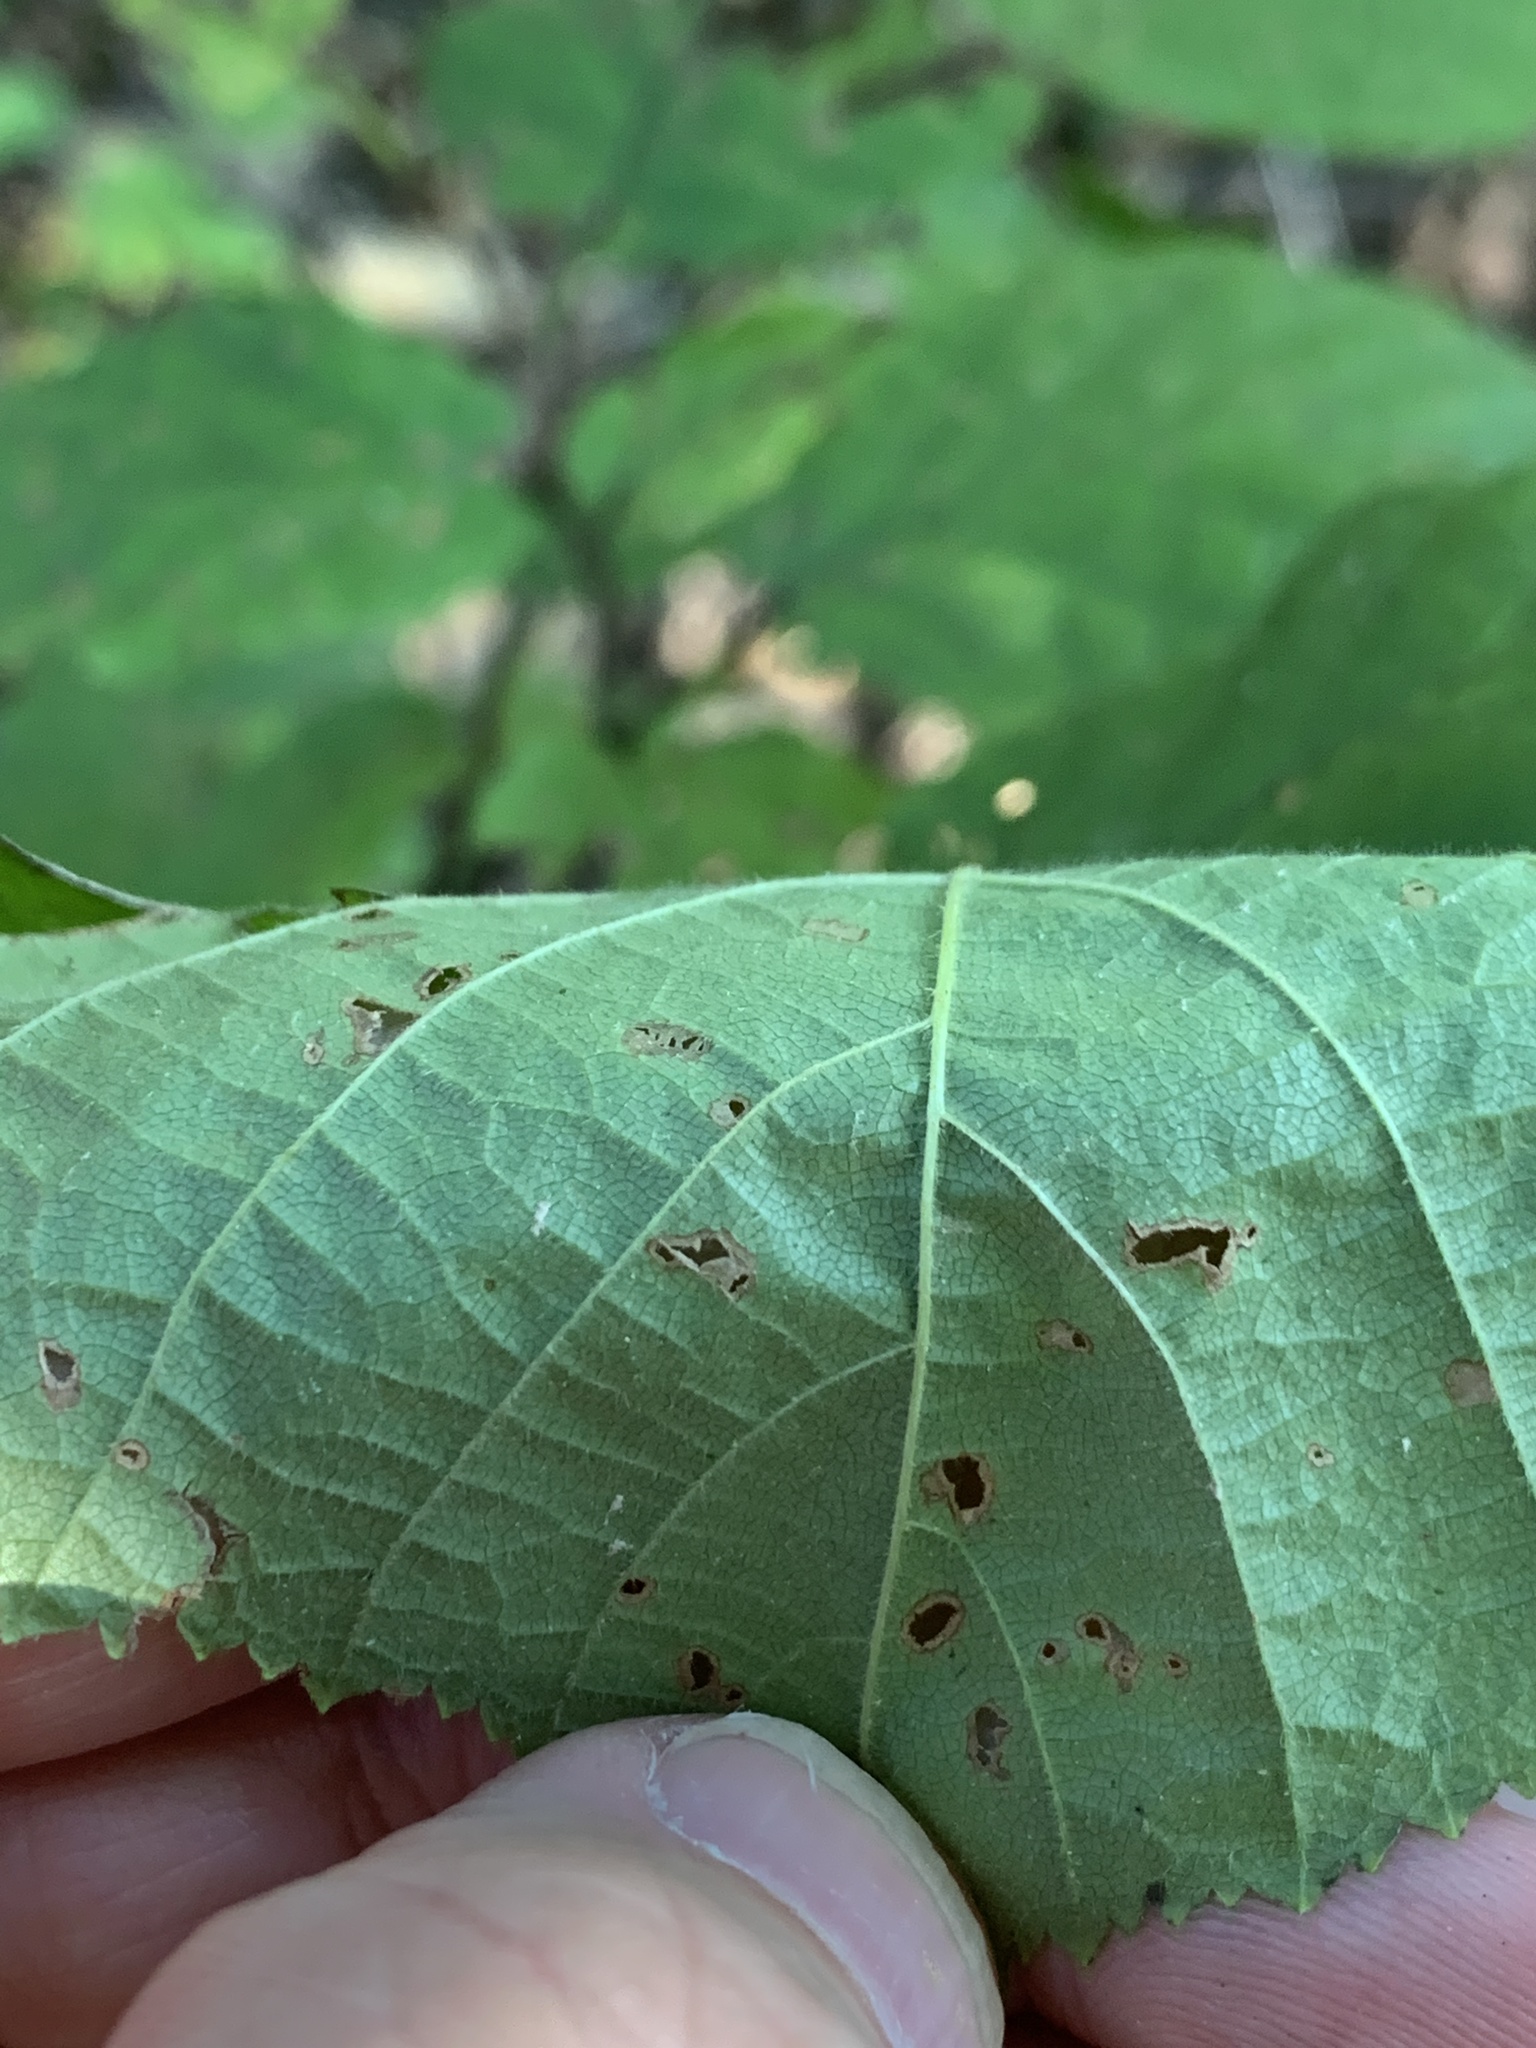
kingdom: Plantae
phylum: Tracheophyta
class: Magnoliopsida
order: Fagales
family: Betulaceae
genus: Corylus
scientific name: Corylus americana
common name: American hazel
